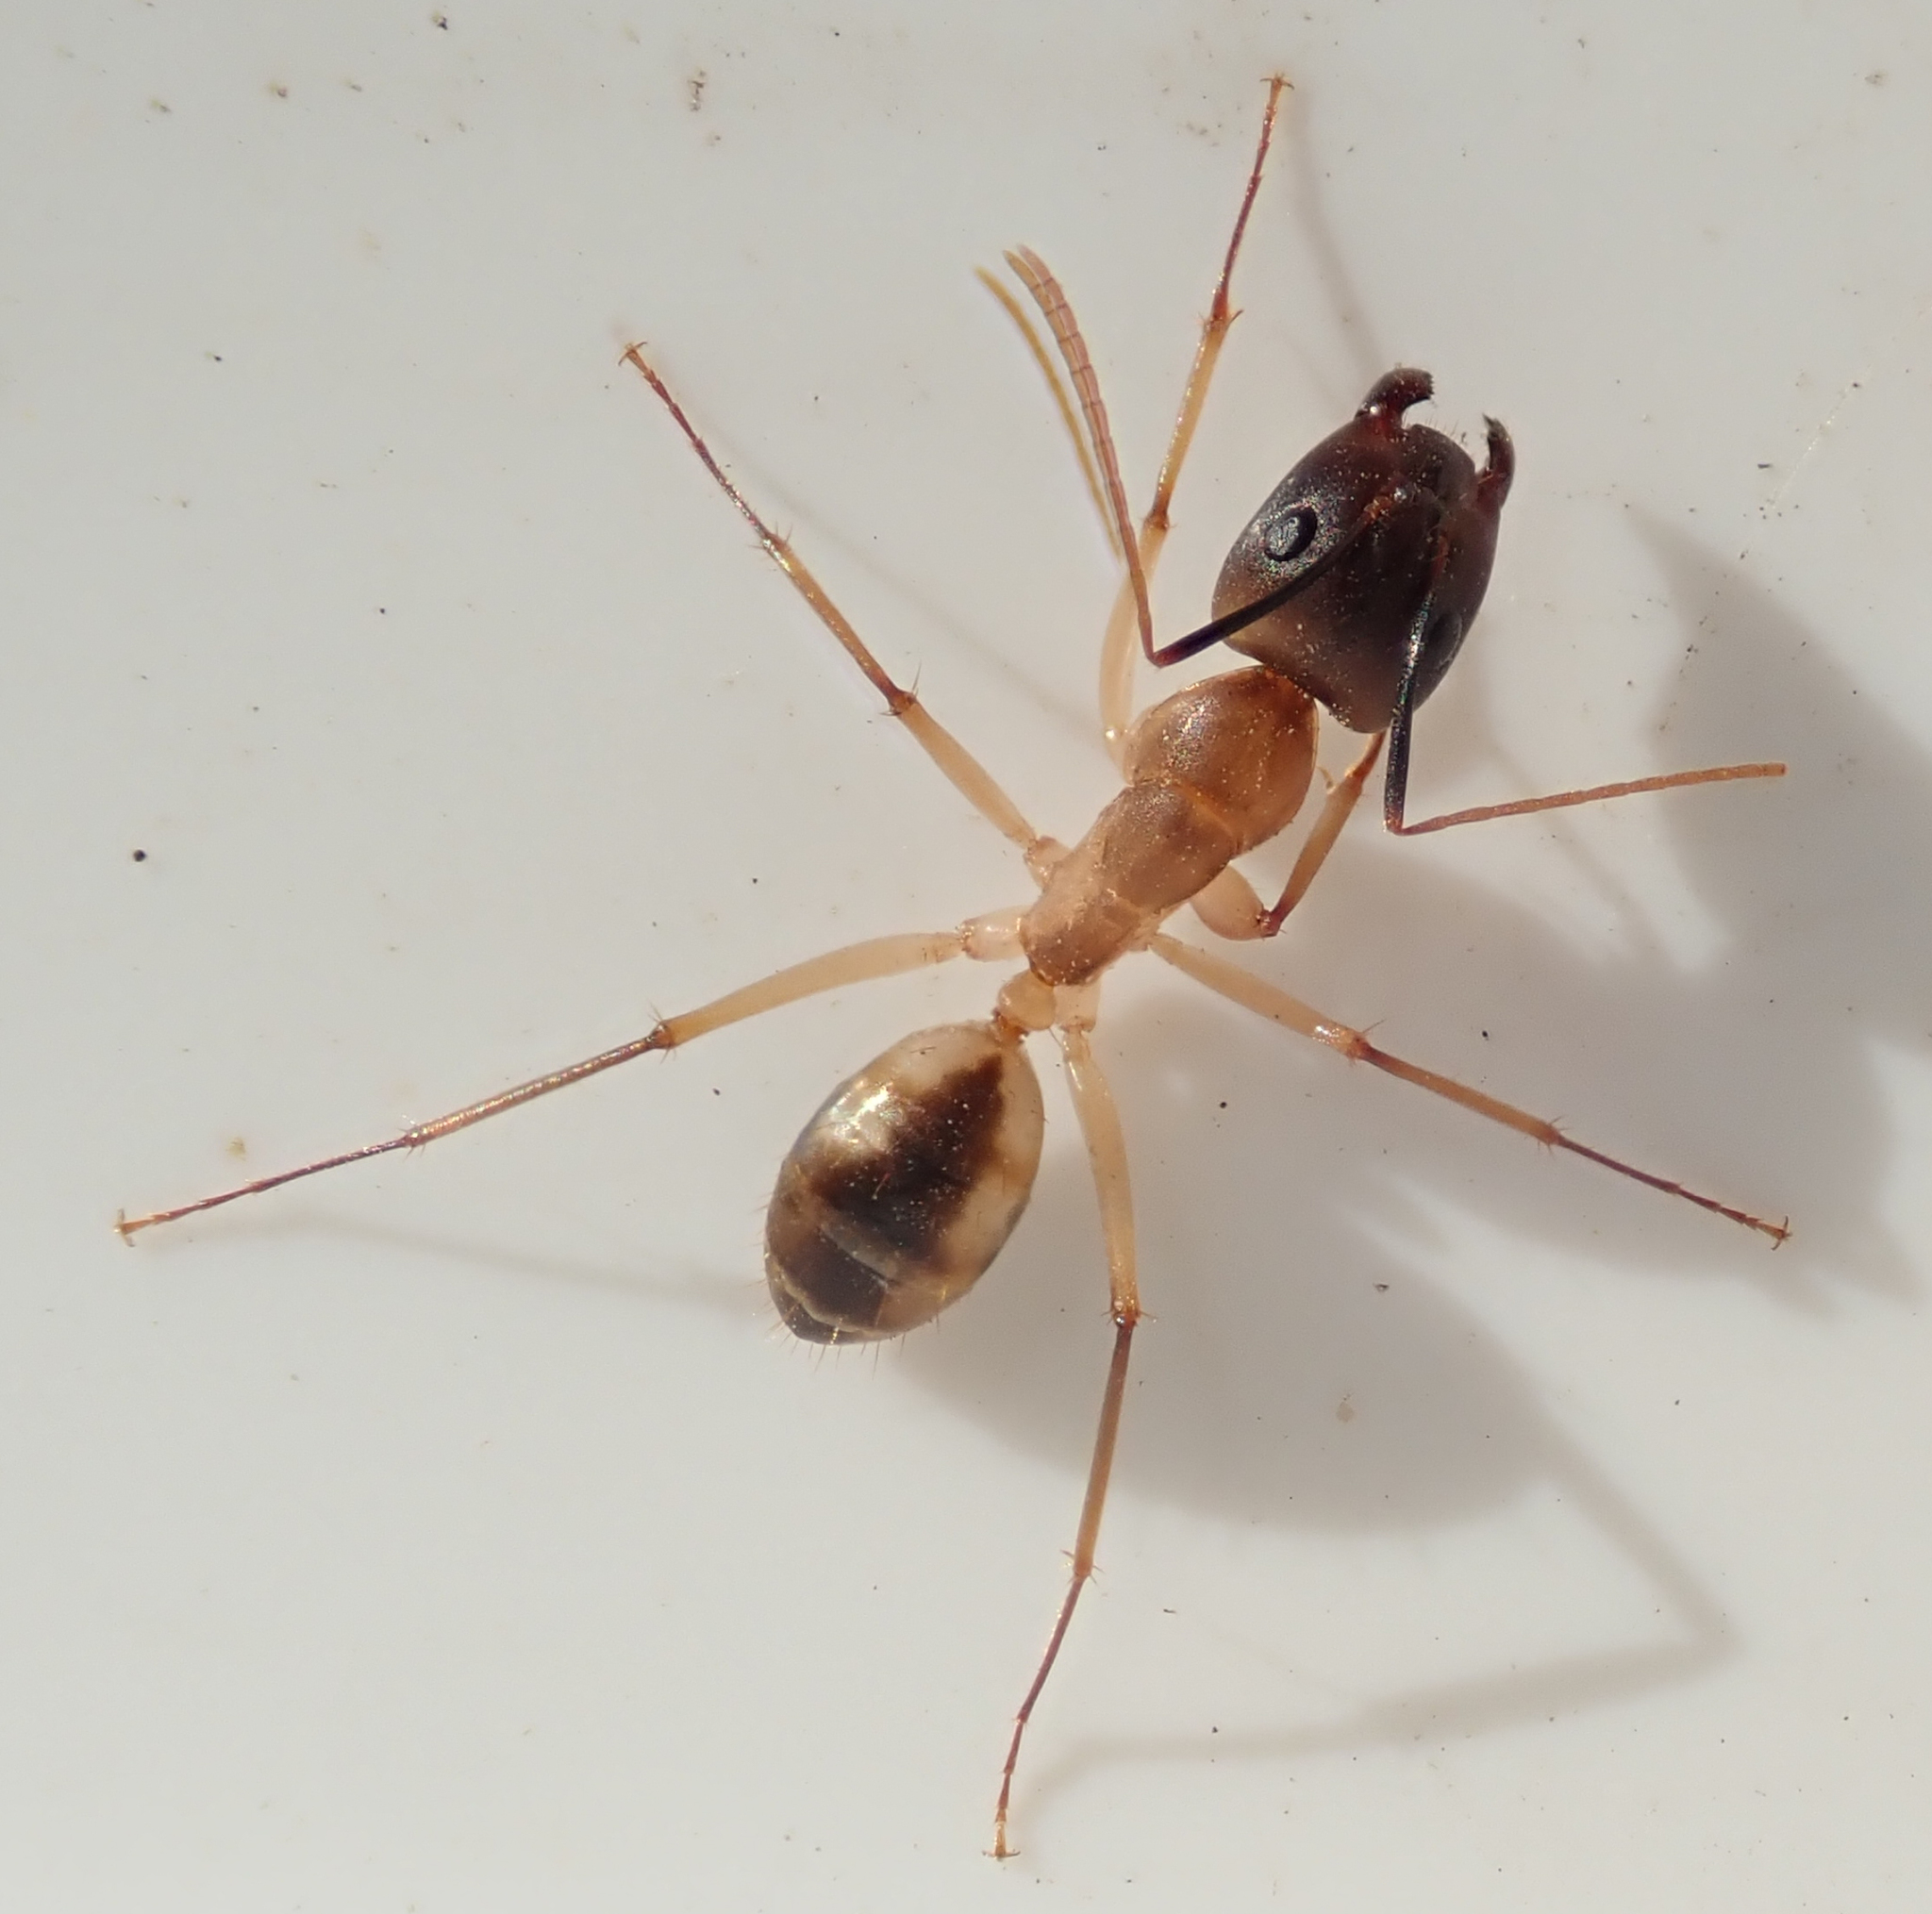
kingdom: Animalia
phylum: Arthropoda
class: Insecta
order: Hymenoptera
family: Formicidae
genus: Camponotus
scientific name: Camponotus maculatus
